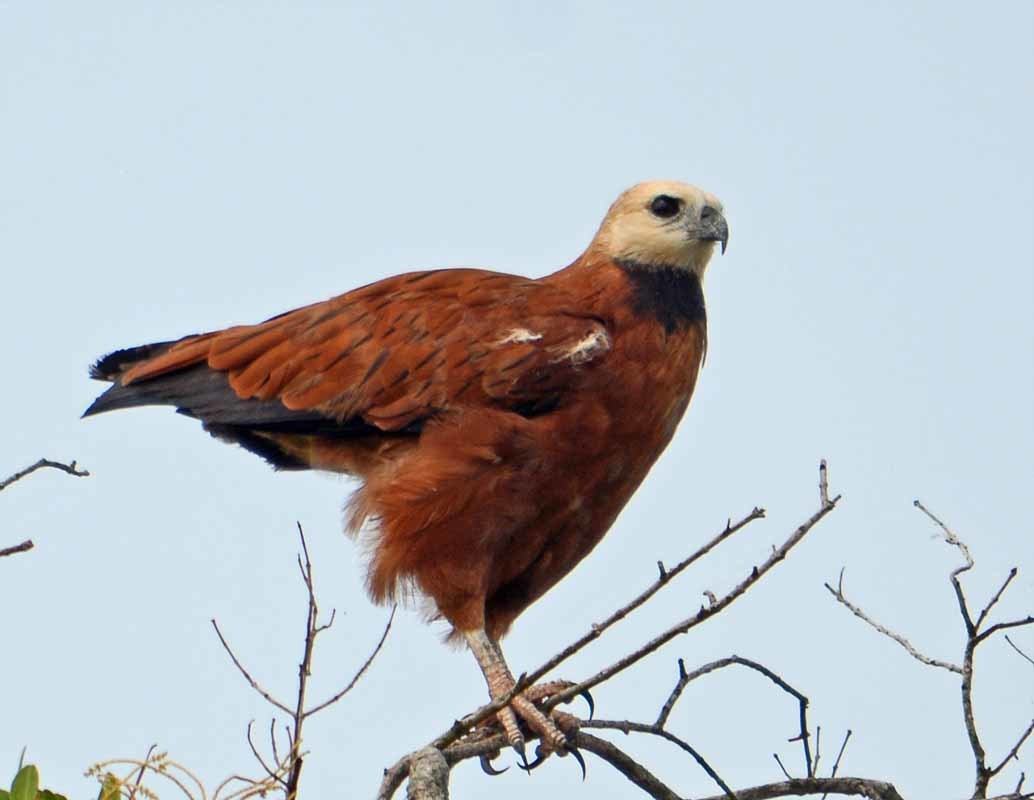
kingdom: Animalia
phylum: Chordata
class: Aves
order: Accipitriformes
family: Accipitridae
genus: Busarellus
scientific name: Busarellus nigricollis
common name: Black-collared hawk
